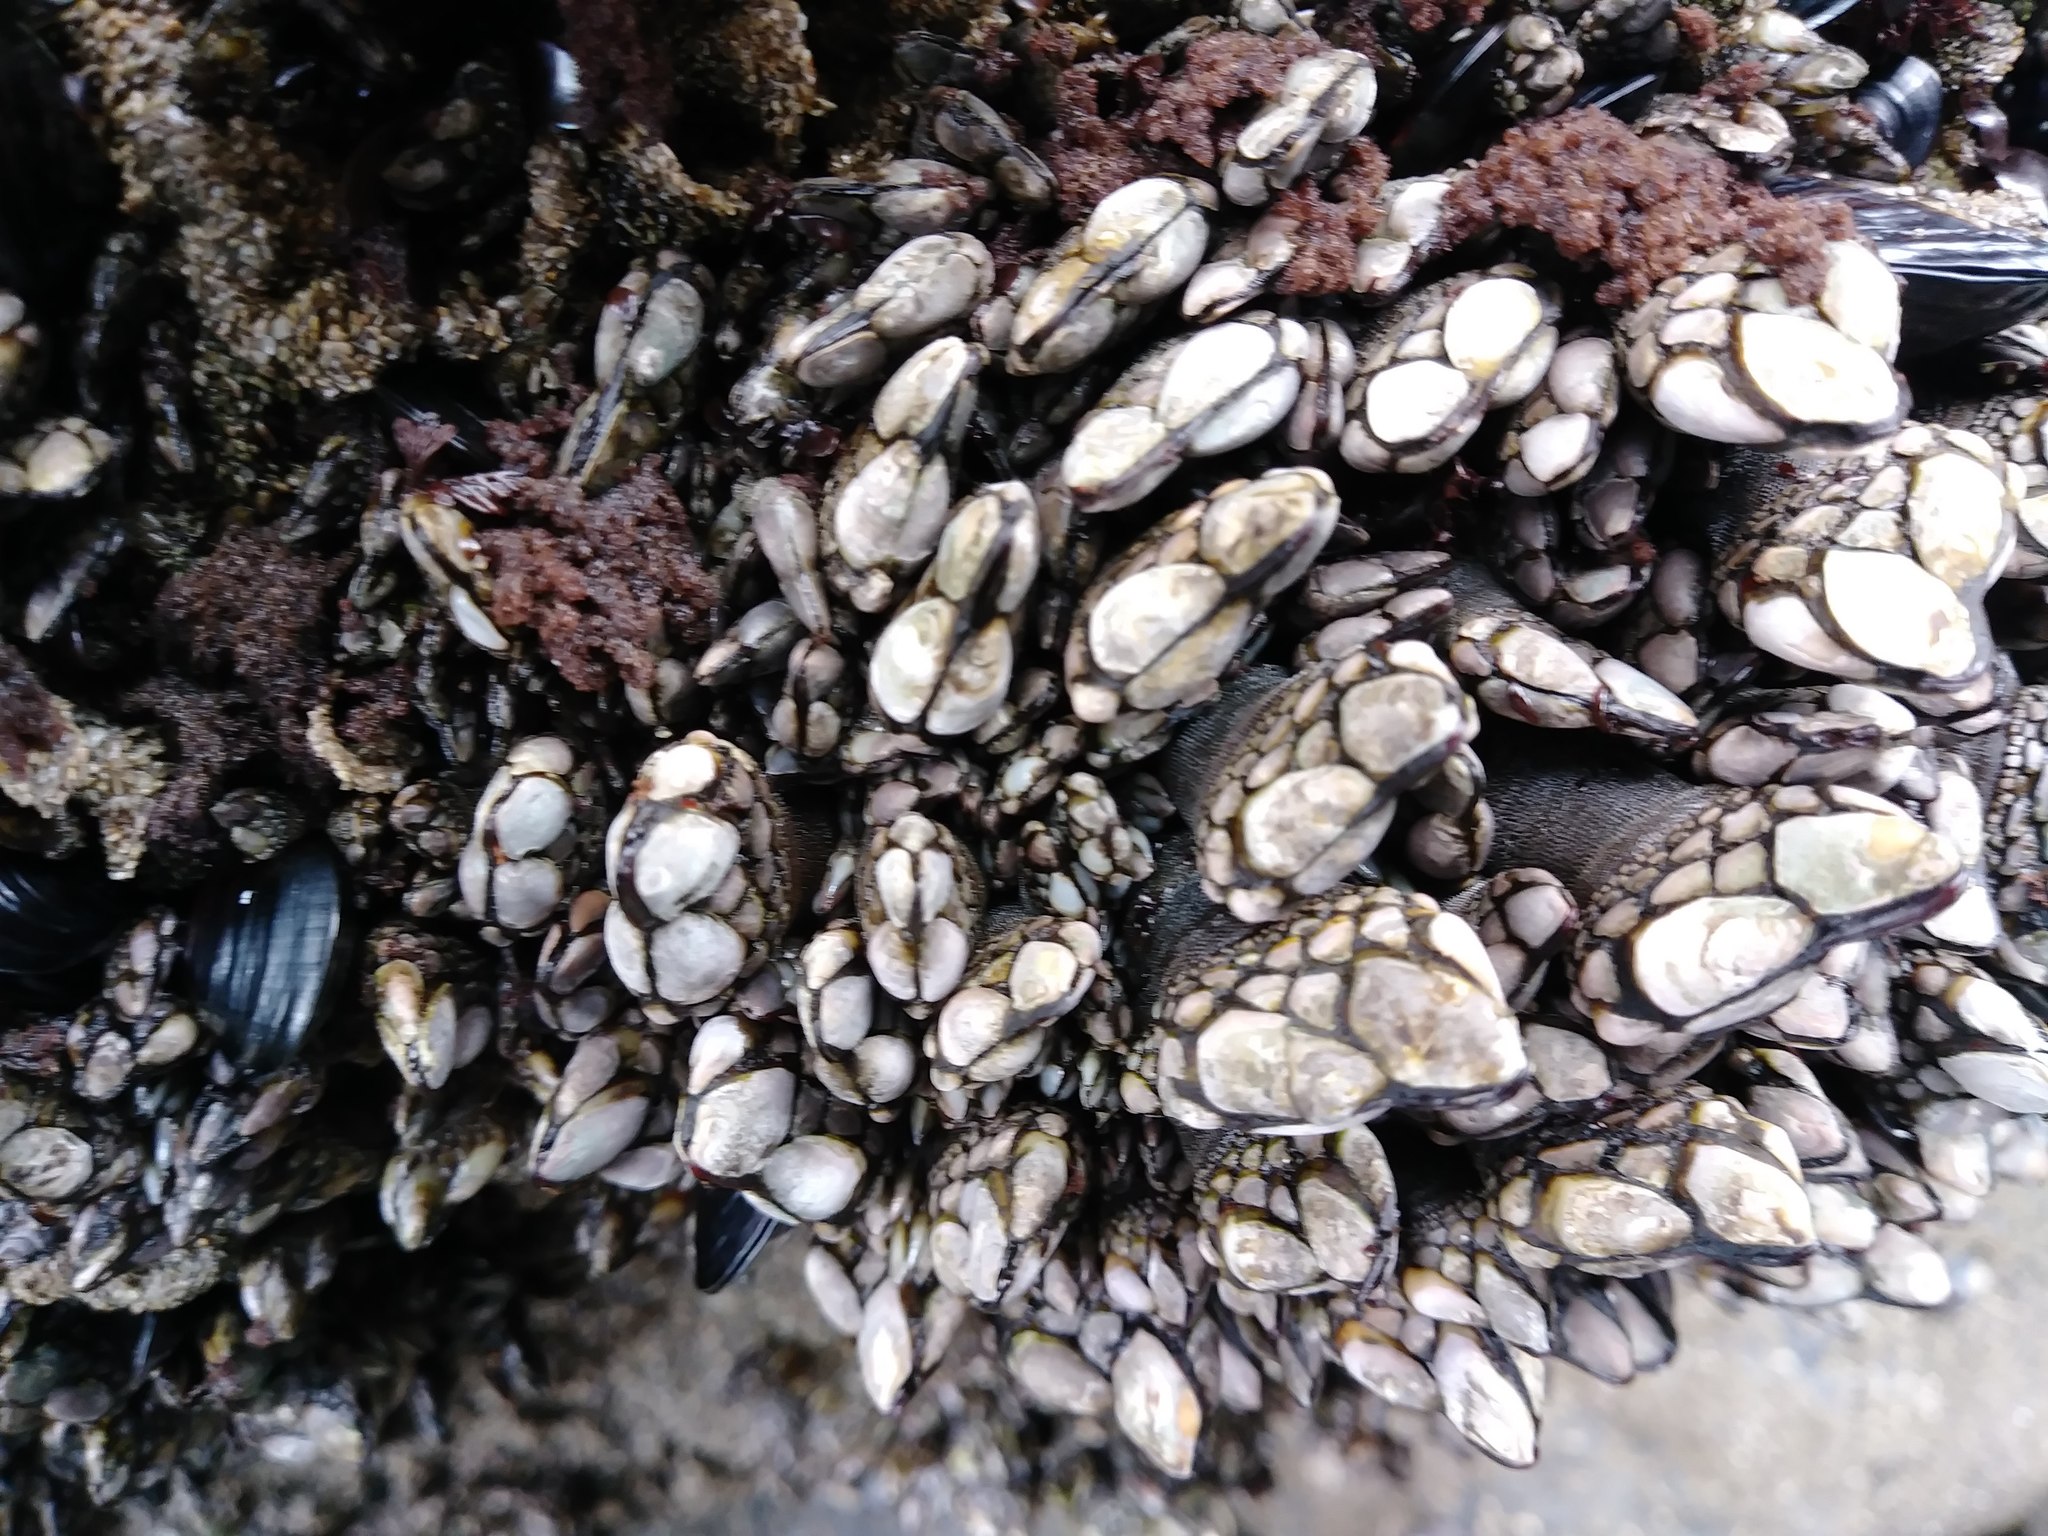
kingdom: Animalia
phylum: Arthropoda
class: Maxillopoda
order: Pedunculata
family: Pollicipedidae
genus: Pollicipes
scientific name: Pollicipes polymerus
